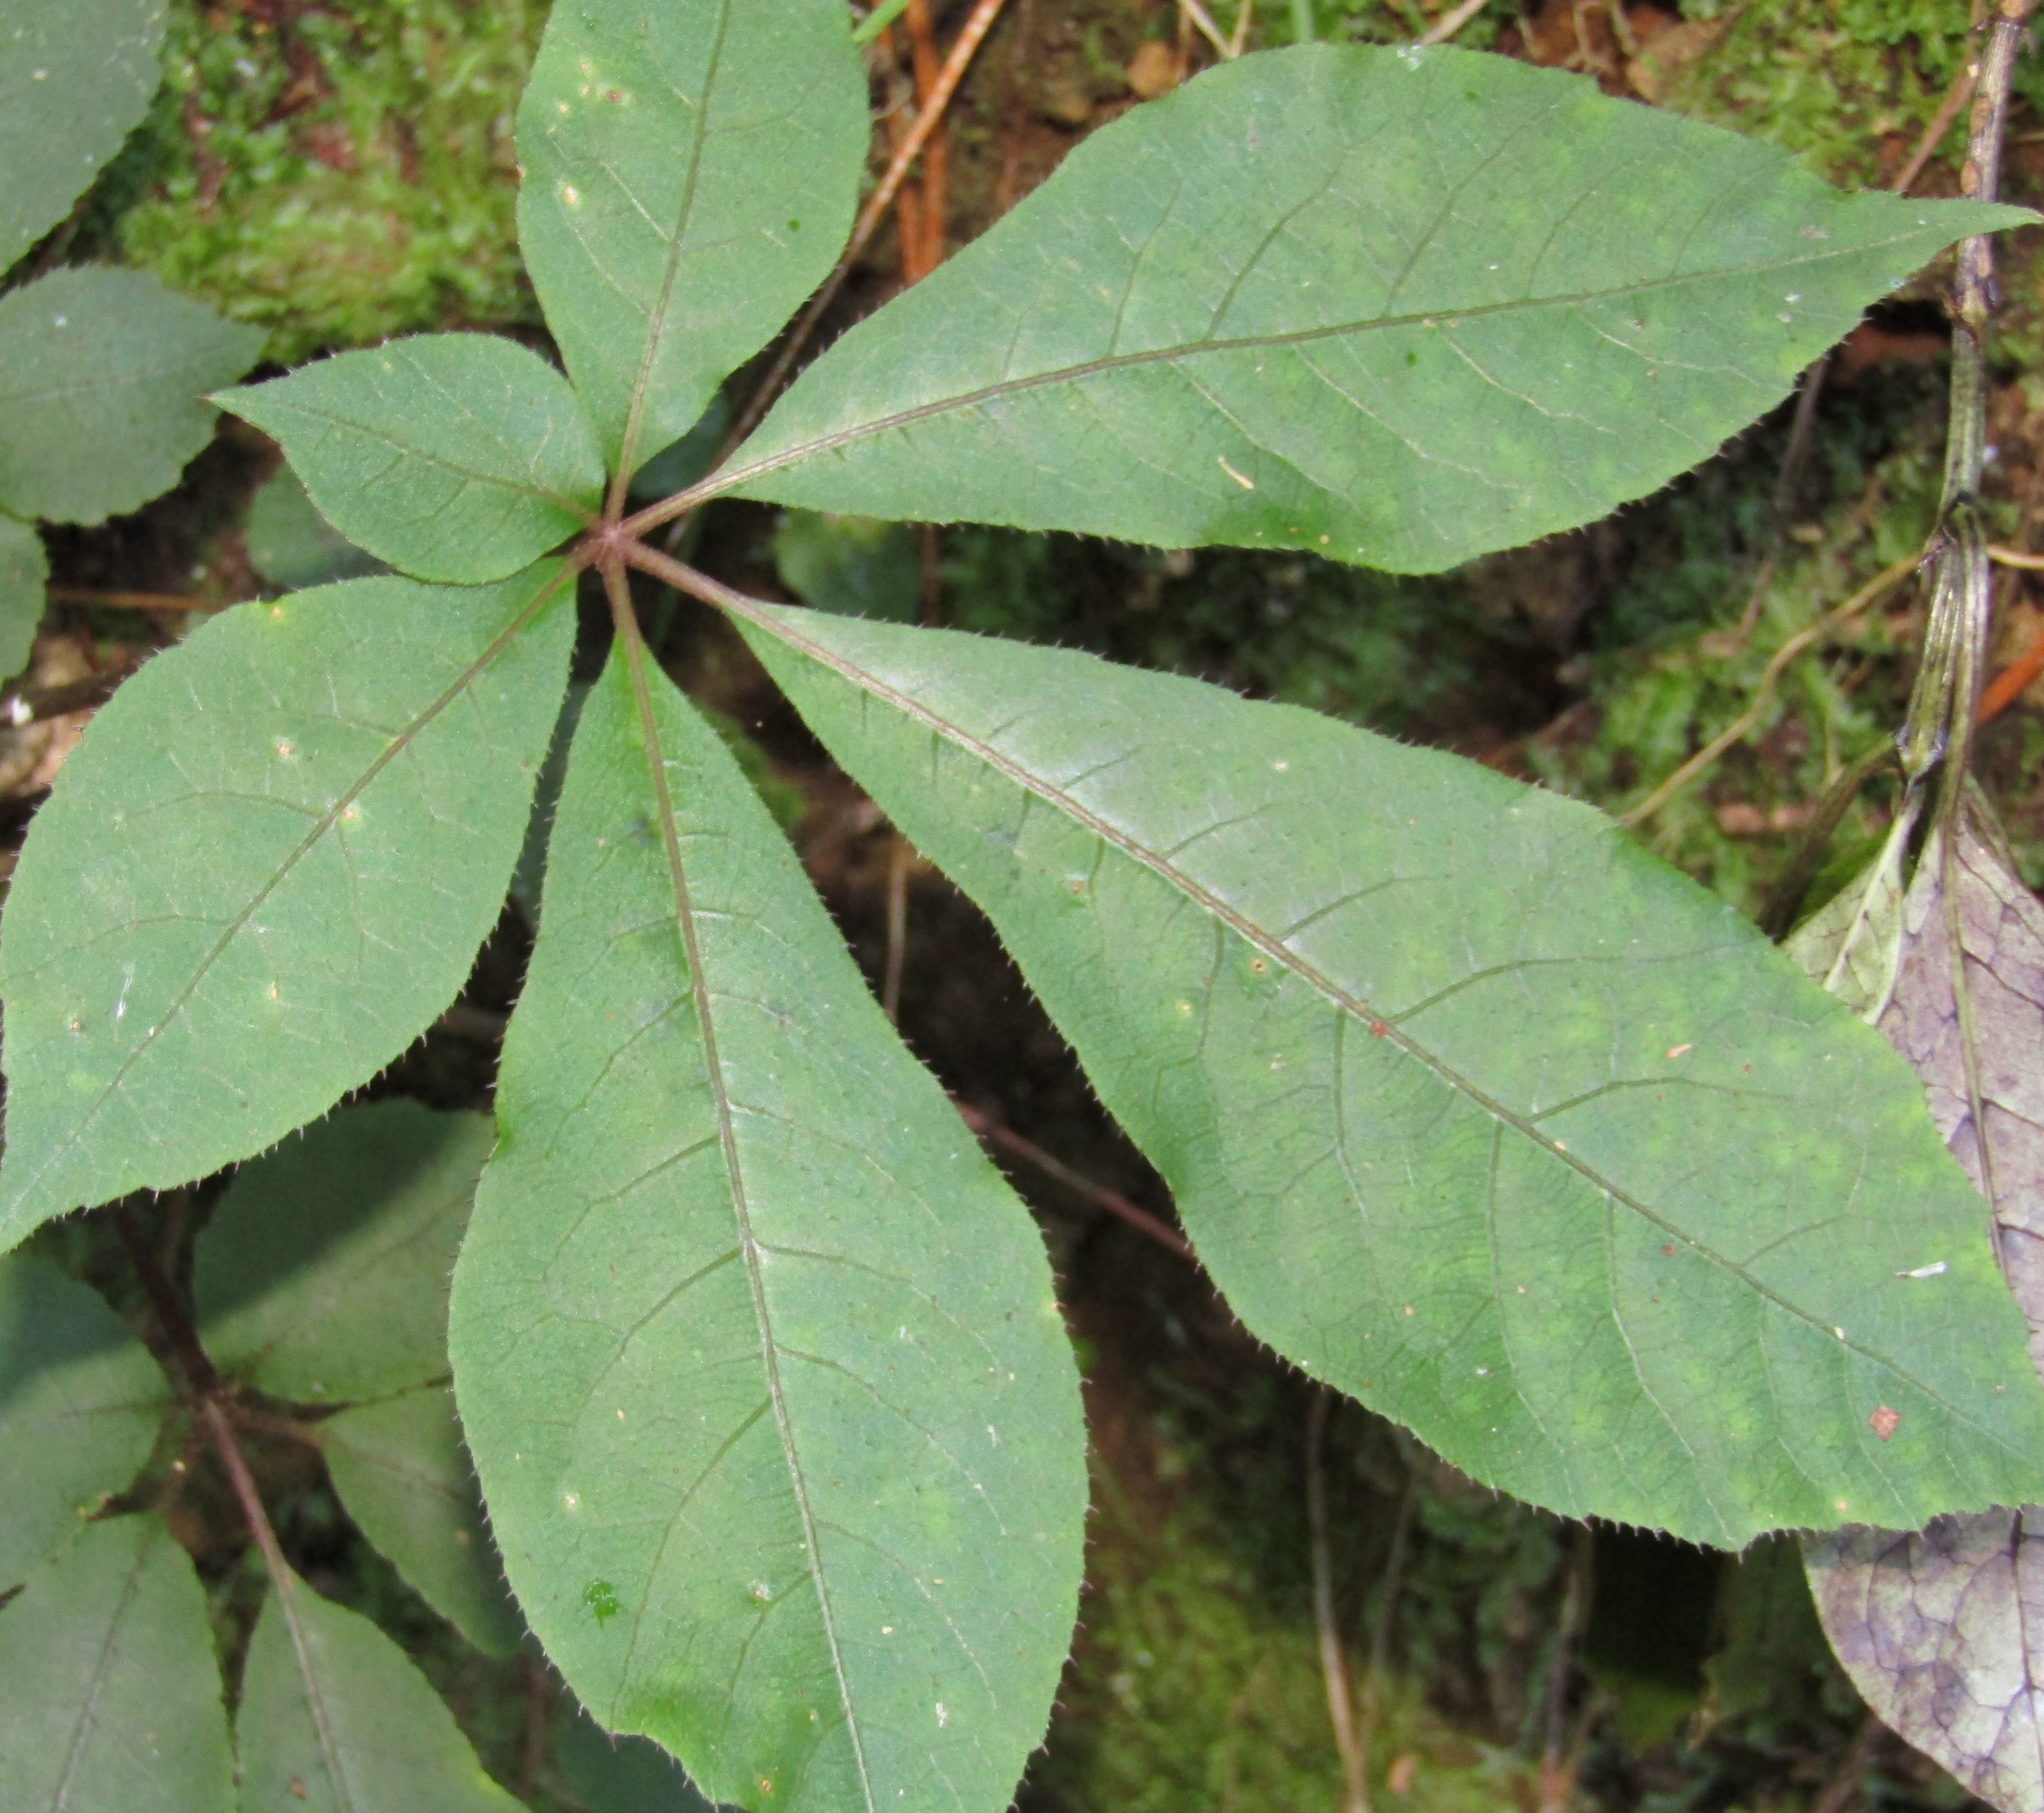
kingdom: Plantae
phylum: Tracheophyta
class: Magnoliopsida
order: Apiales
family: Araliaceae
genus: Schefflera
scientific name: Schefflera digitata
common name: Pate
